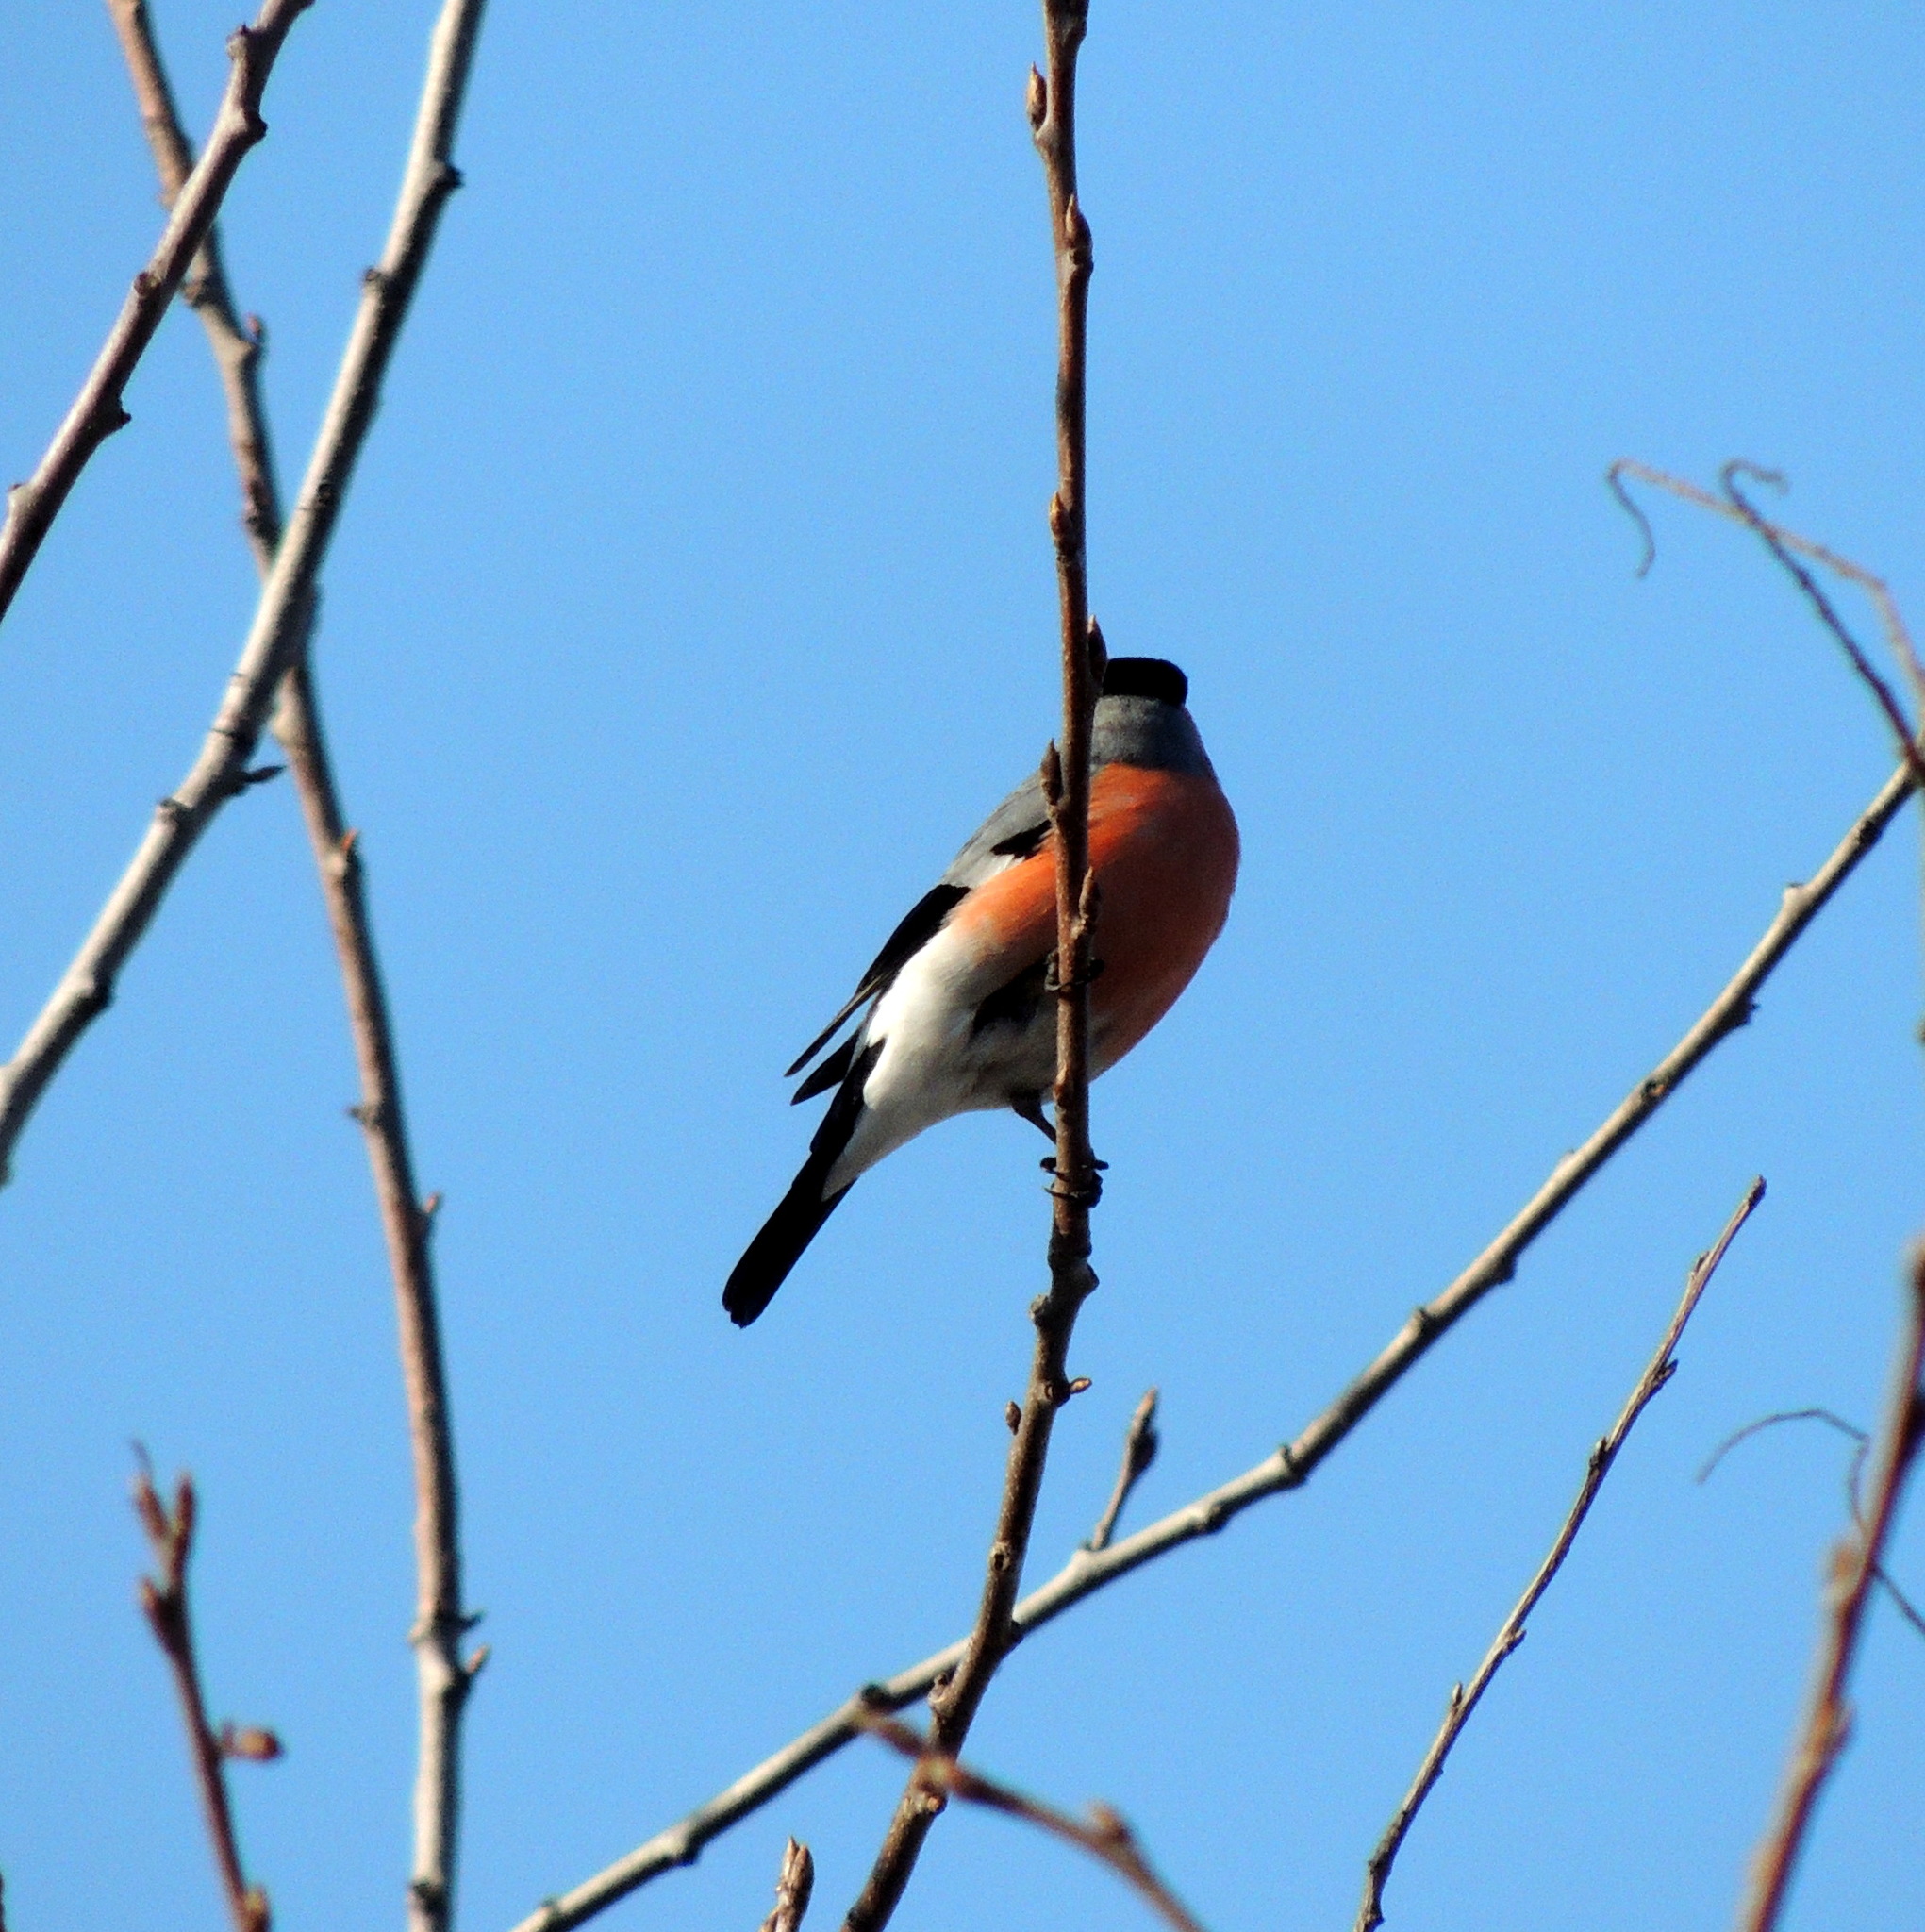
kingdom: Animalia
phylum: Chordata
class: Aves
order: Passeriformes
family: Fringillidae
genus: Pyrrhula
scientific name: Pyrrhula pyrrhula
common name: Eurasian bullfinch
